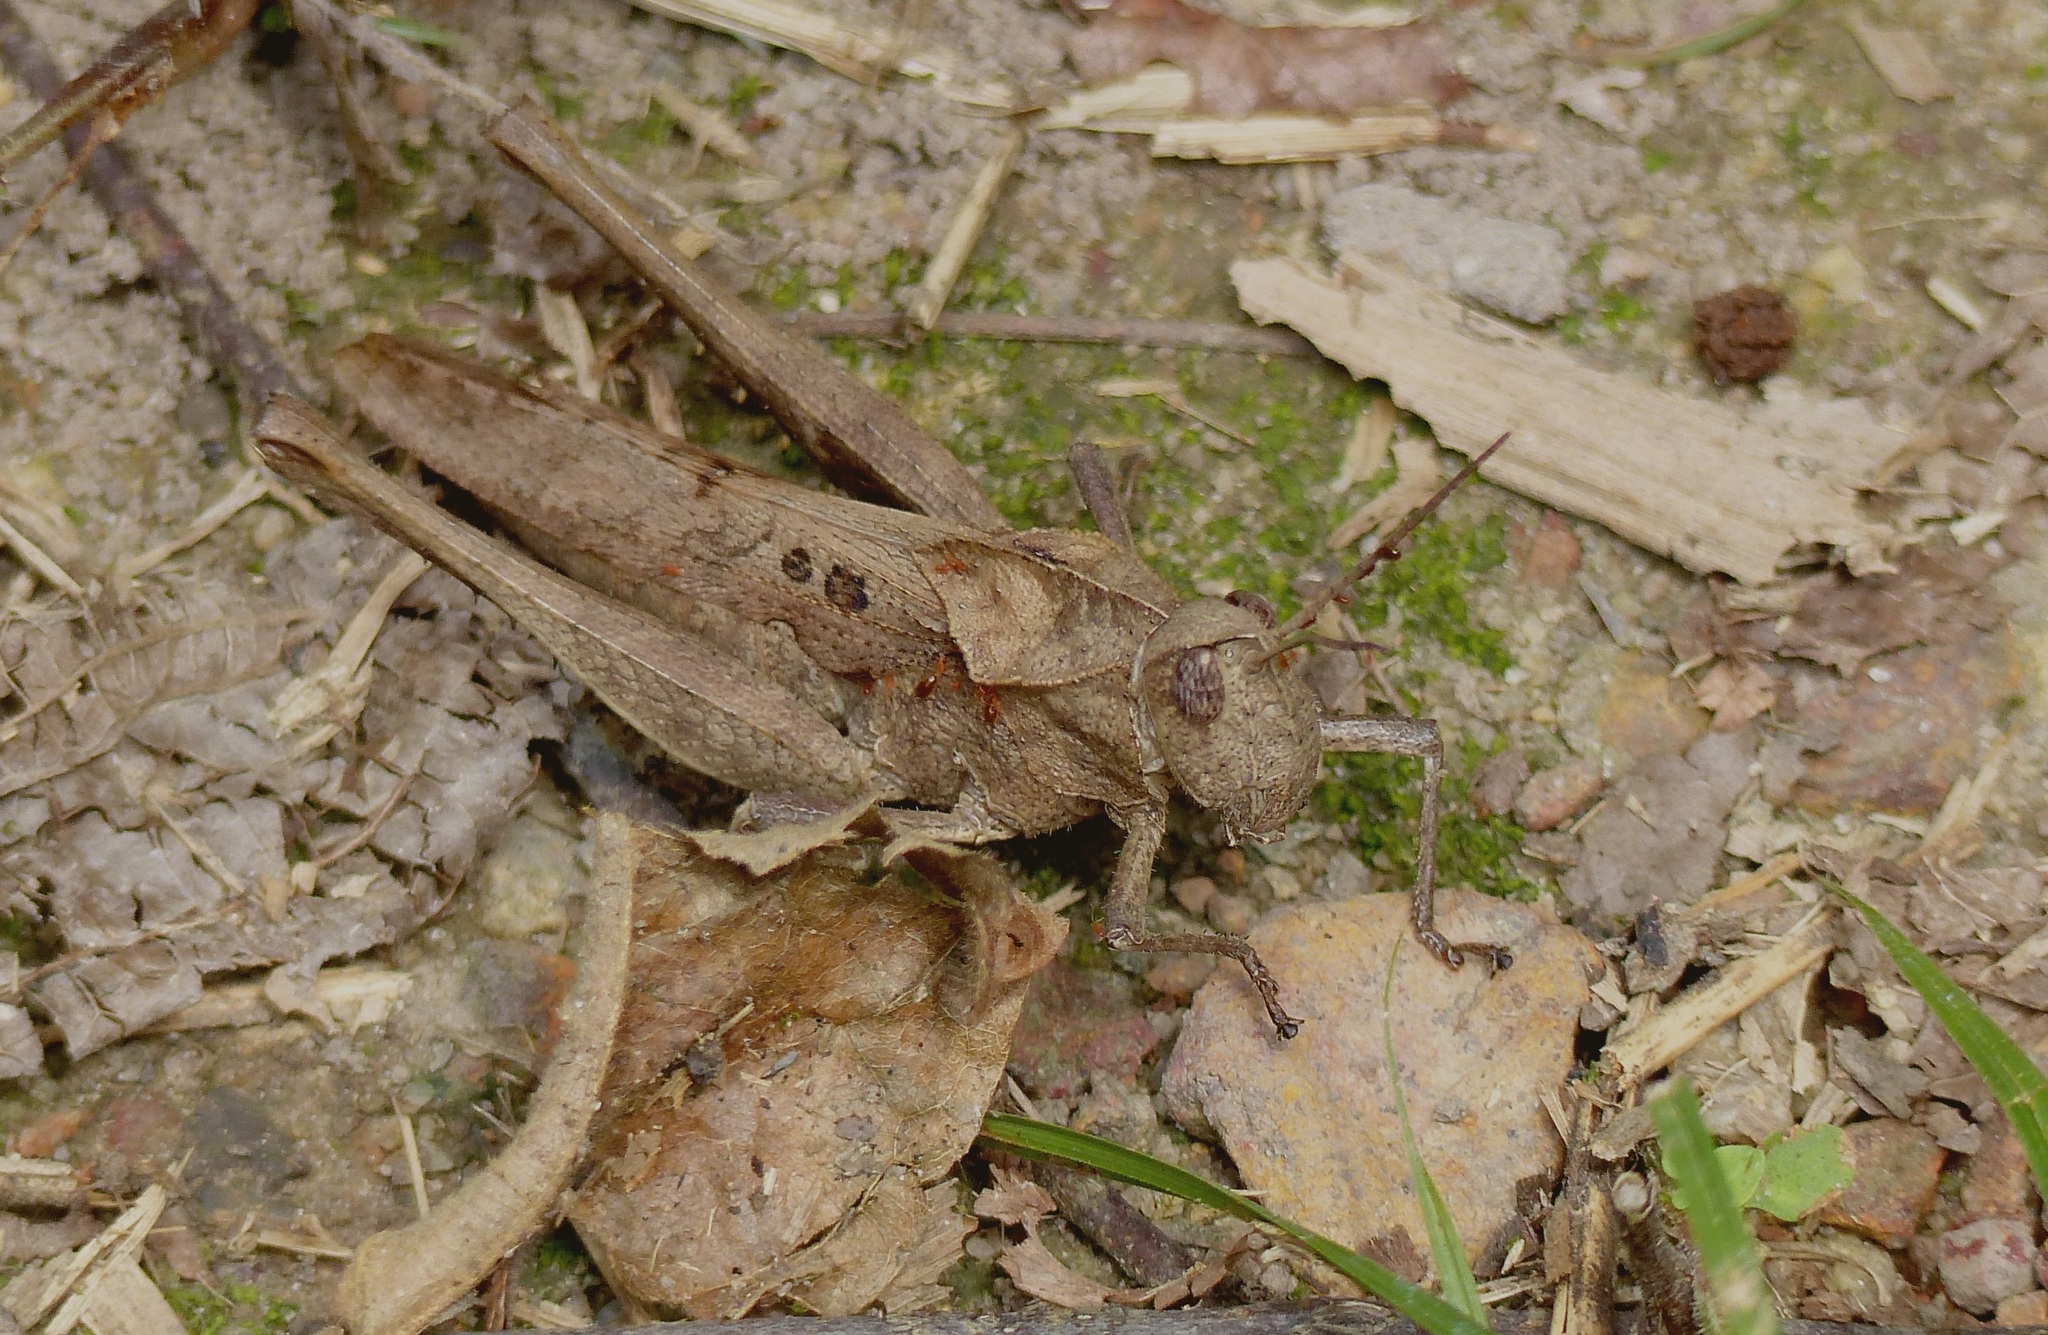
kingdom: Animalia
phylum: Arthropoda
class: Insecta
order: Orthoptera
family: Romaleidae
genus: Xyleus
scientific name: Xyleus discoideus
